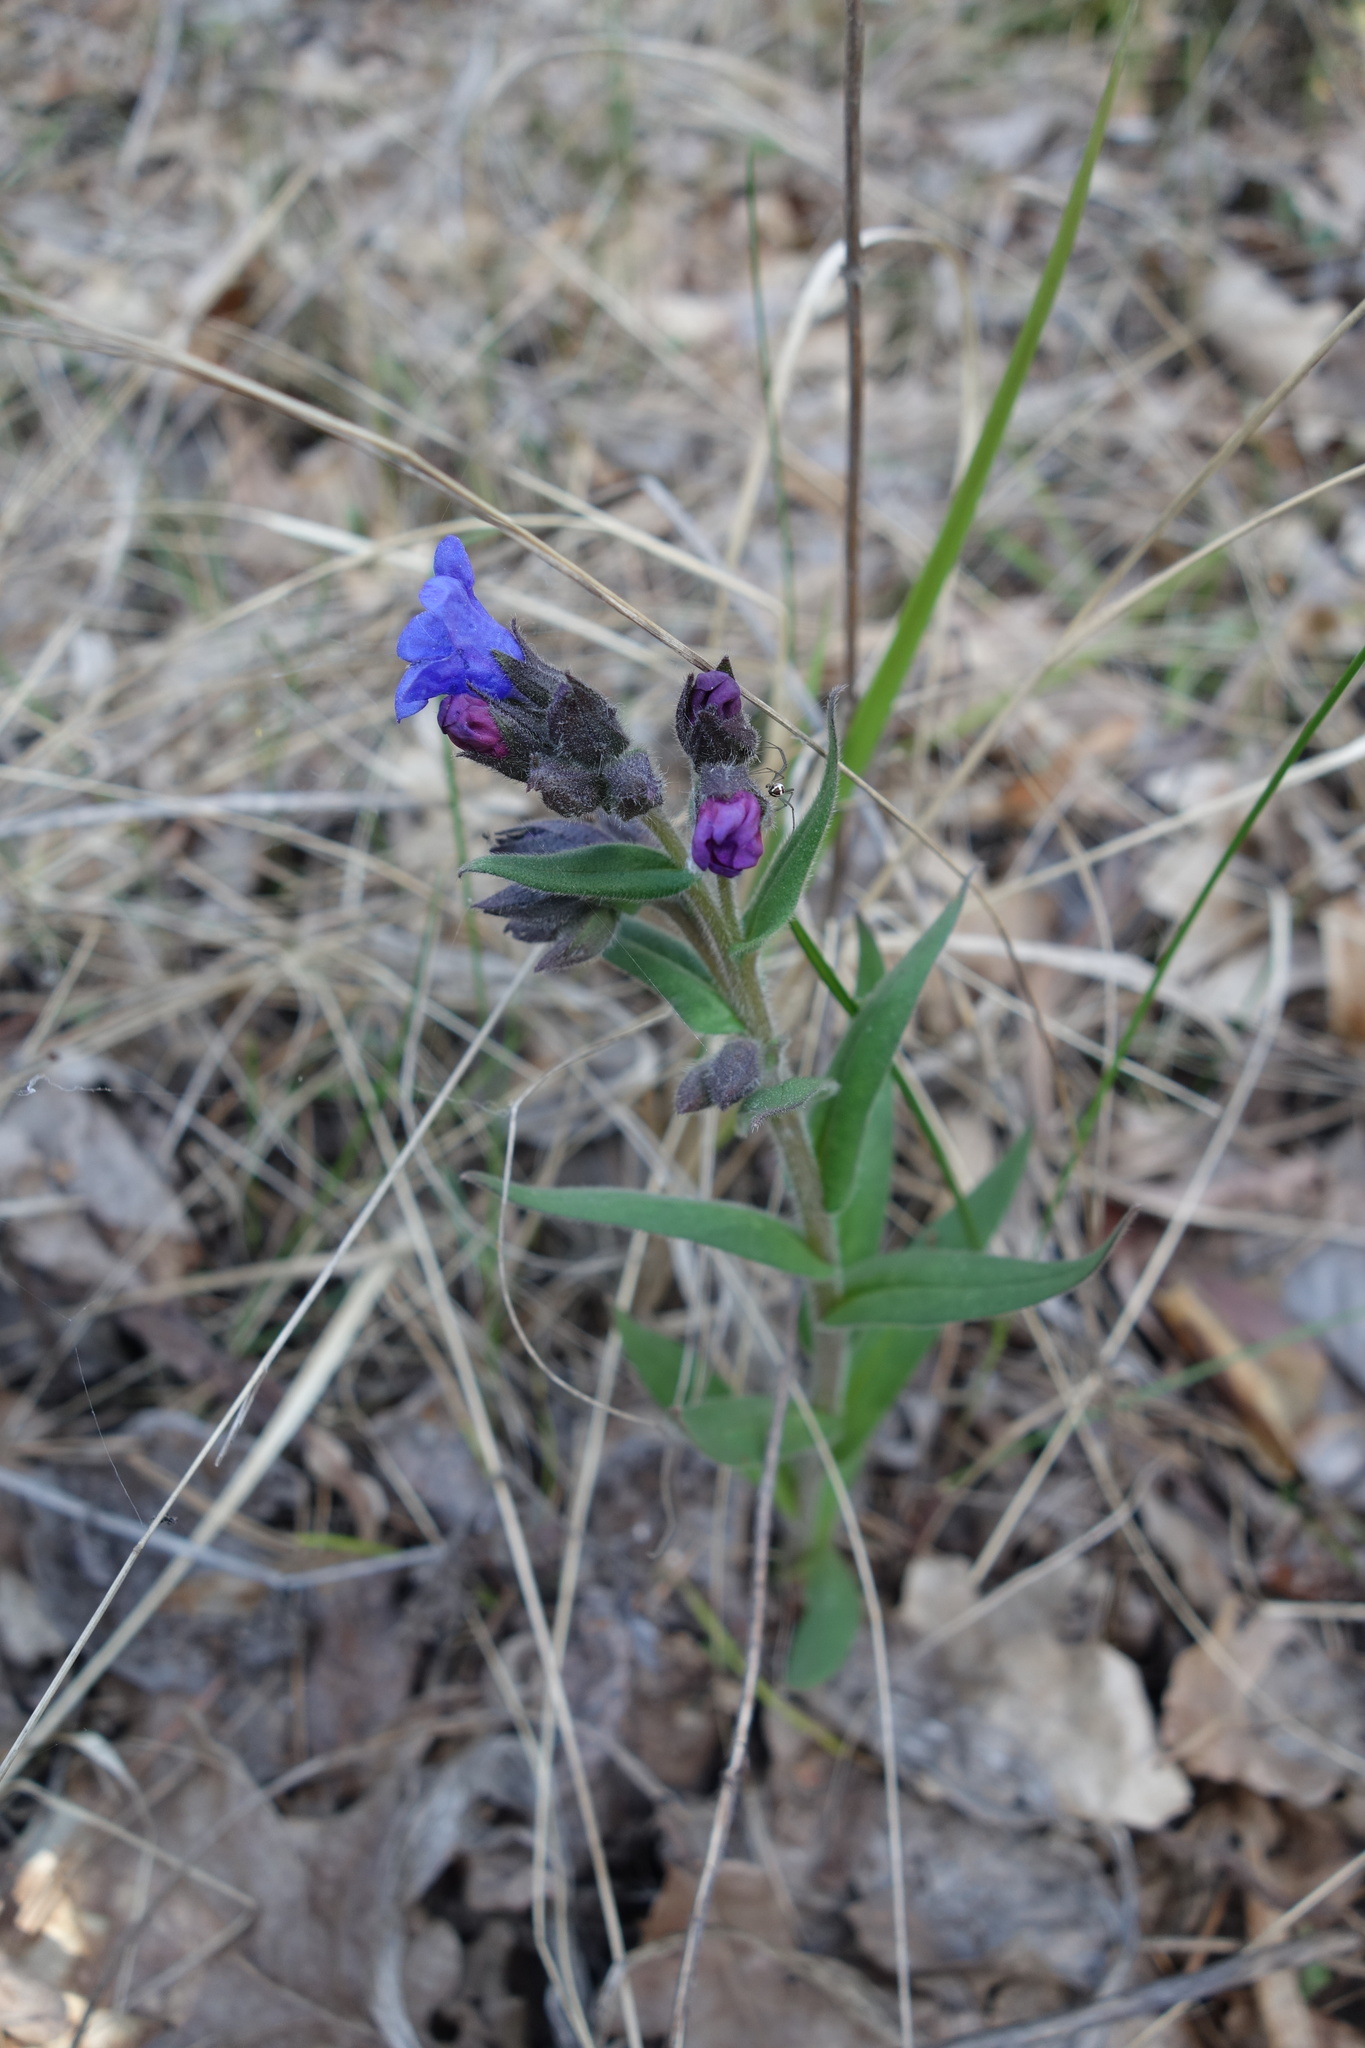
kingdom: Plantae
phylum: Tracheophyta
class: Magnoliopsida
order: Boraginales
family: Boraginaceae
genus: Pulmonaria
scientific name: Pulmonaria angustifolia
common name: Blue cowslip
